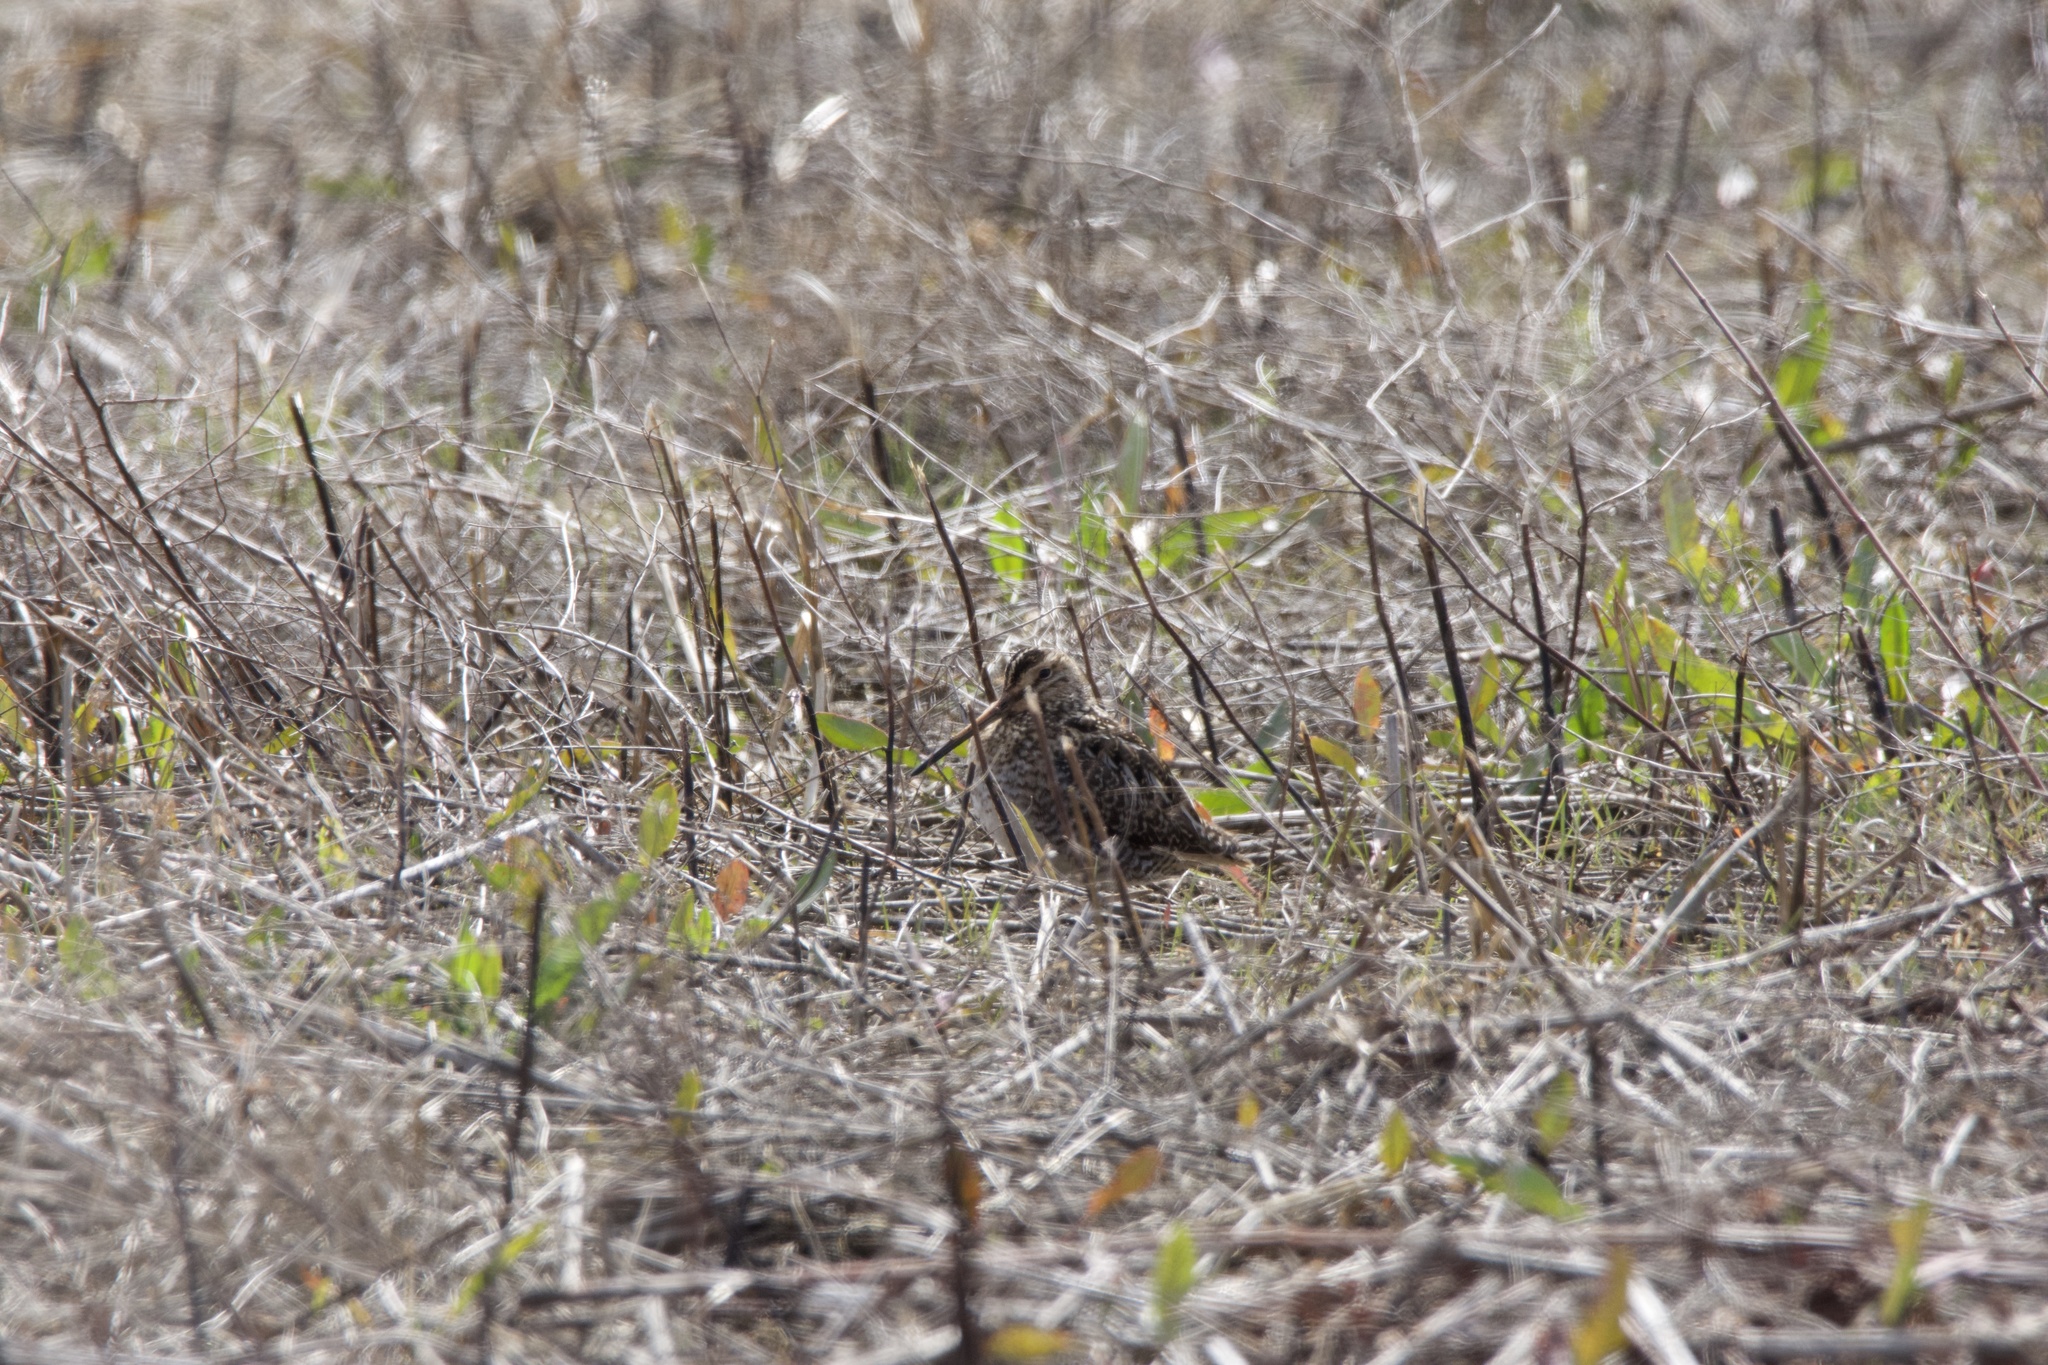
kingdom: Animalia
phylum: Chordata
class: Aves
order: Charadriiformes
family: Scolopacidae
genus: Gallinago
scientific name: Gallinago delicata
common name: Wilson's snipe
